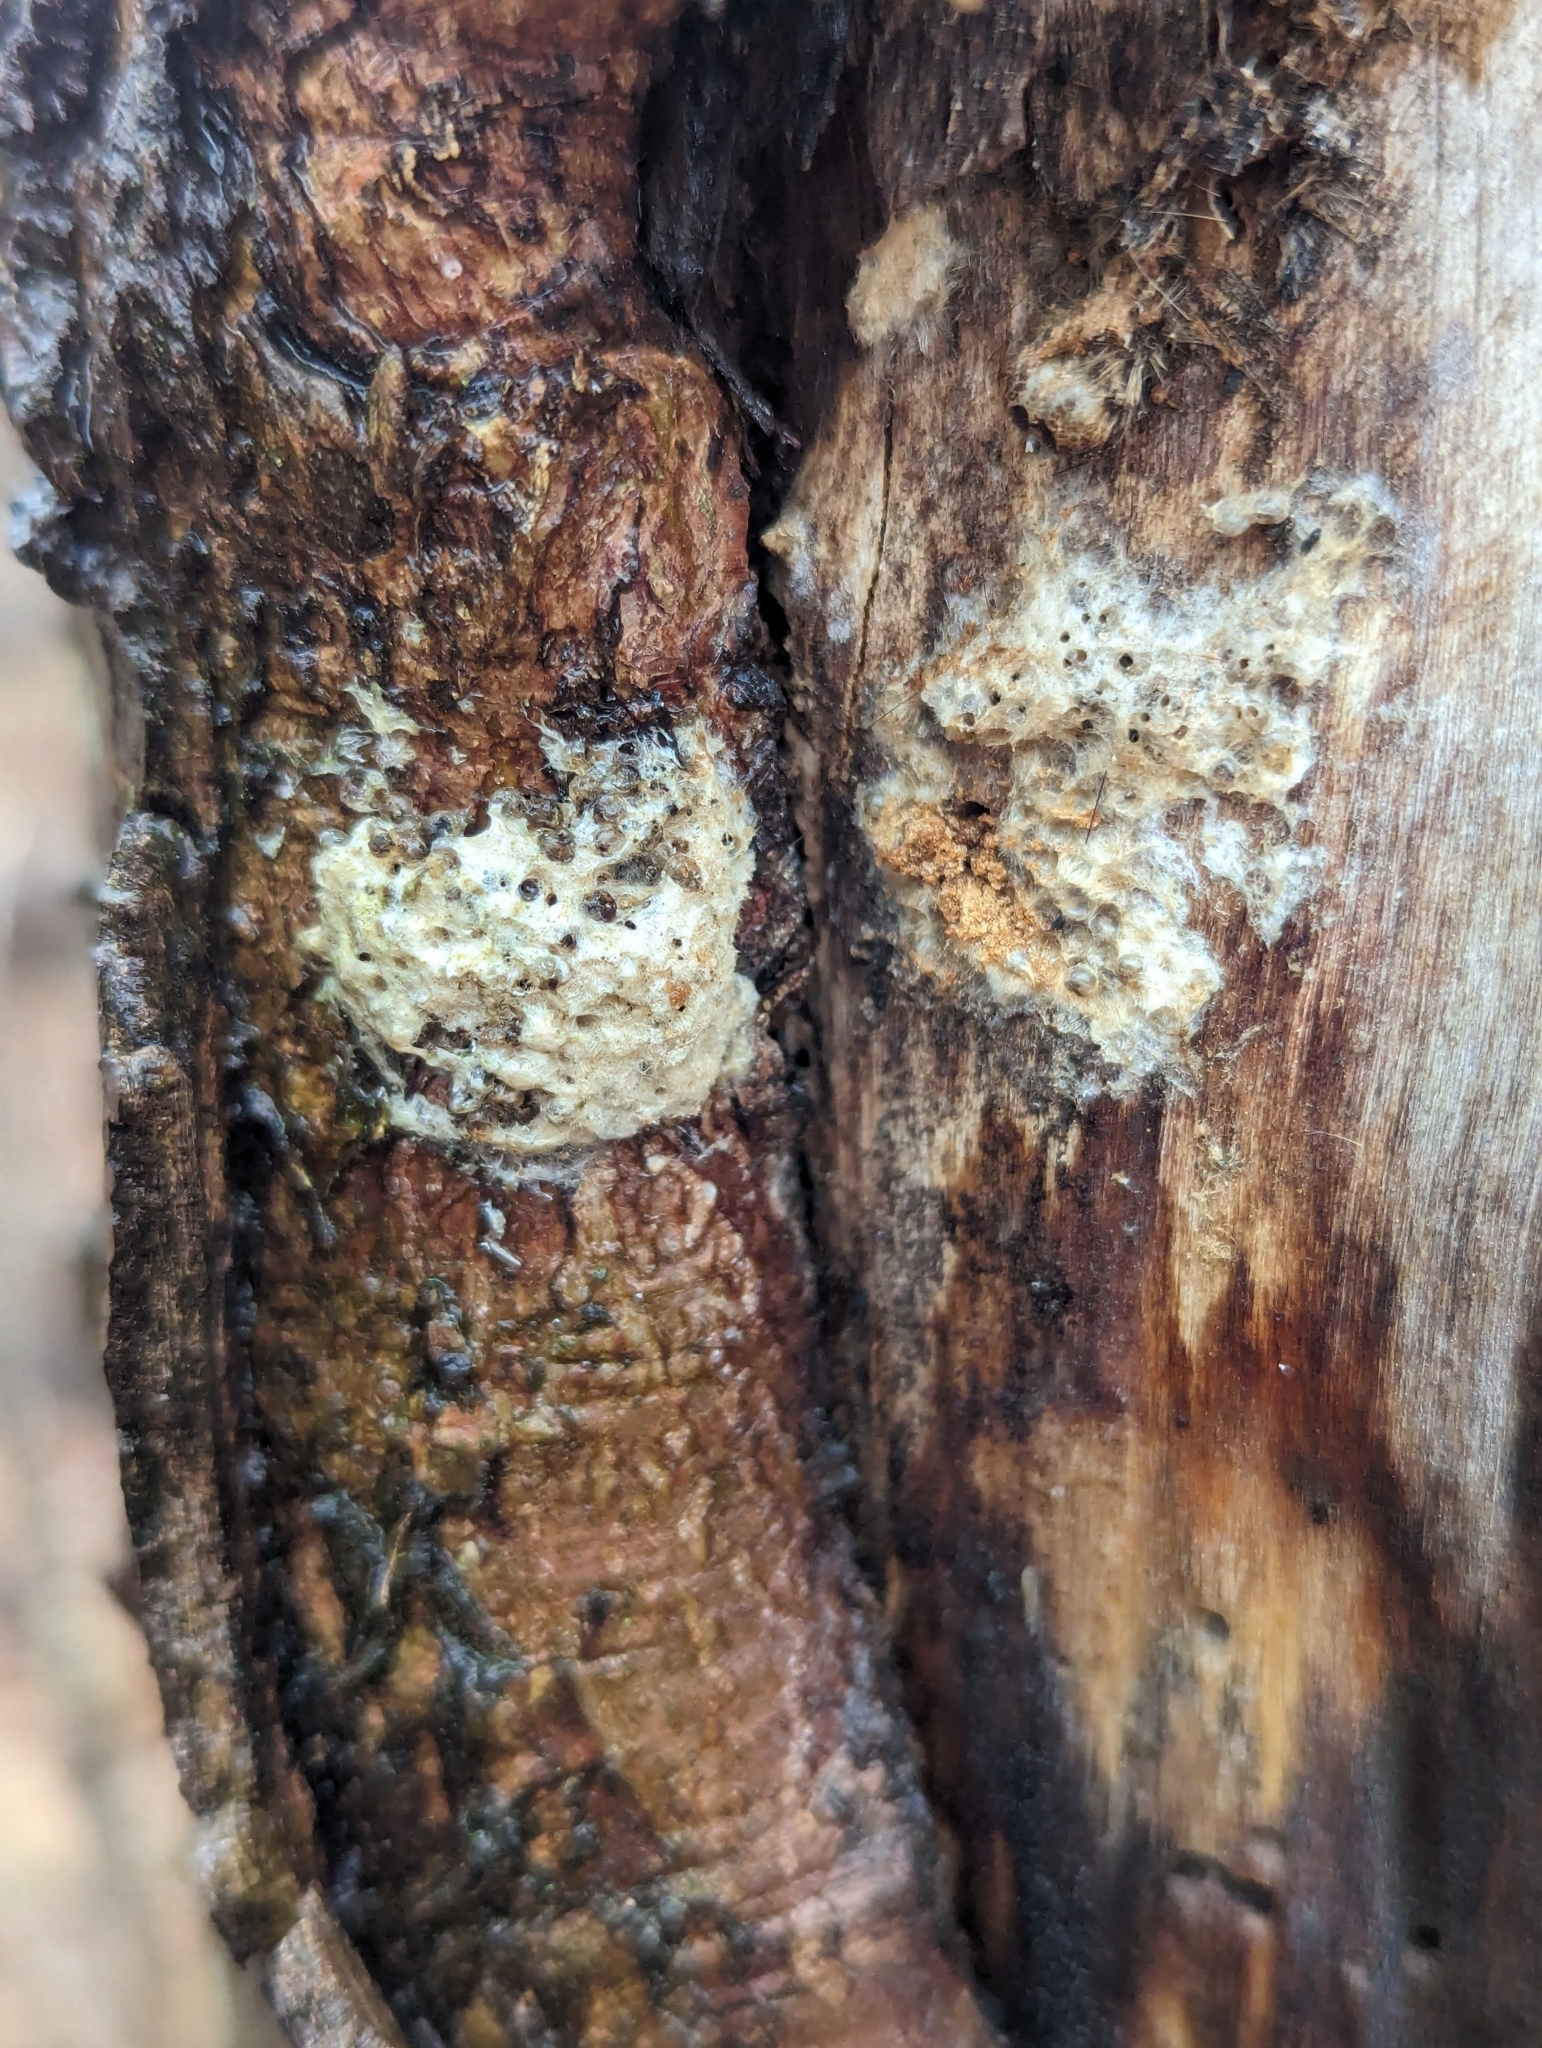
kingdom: Animalia
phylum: Arthropoda
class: Insecta
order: Lepidoptera
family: Erebidae
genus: Lymantria
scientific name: Lymantria dispar
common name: Gypsy moth
